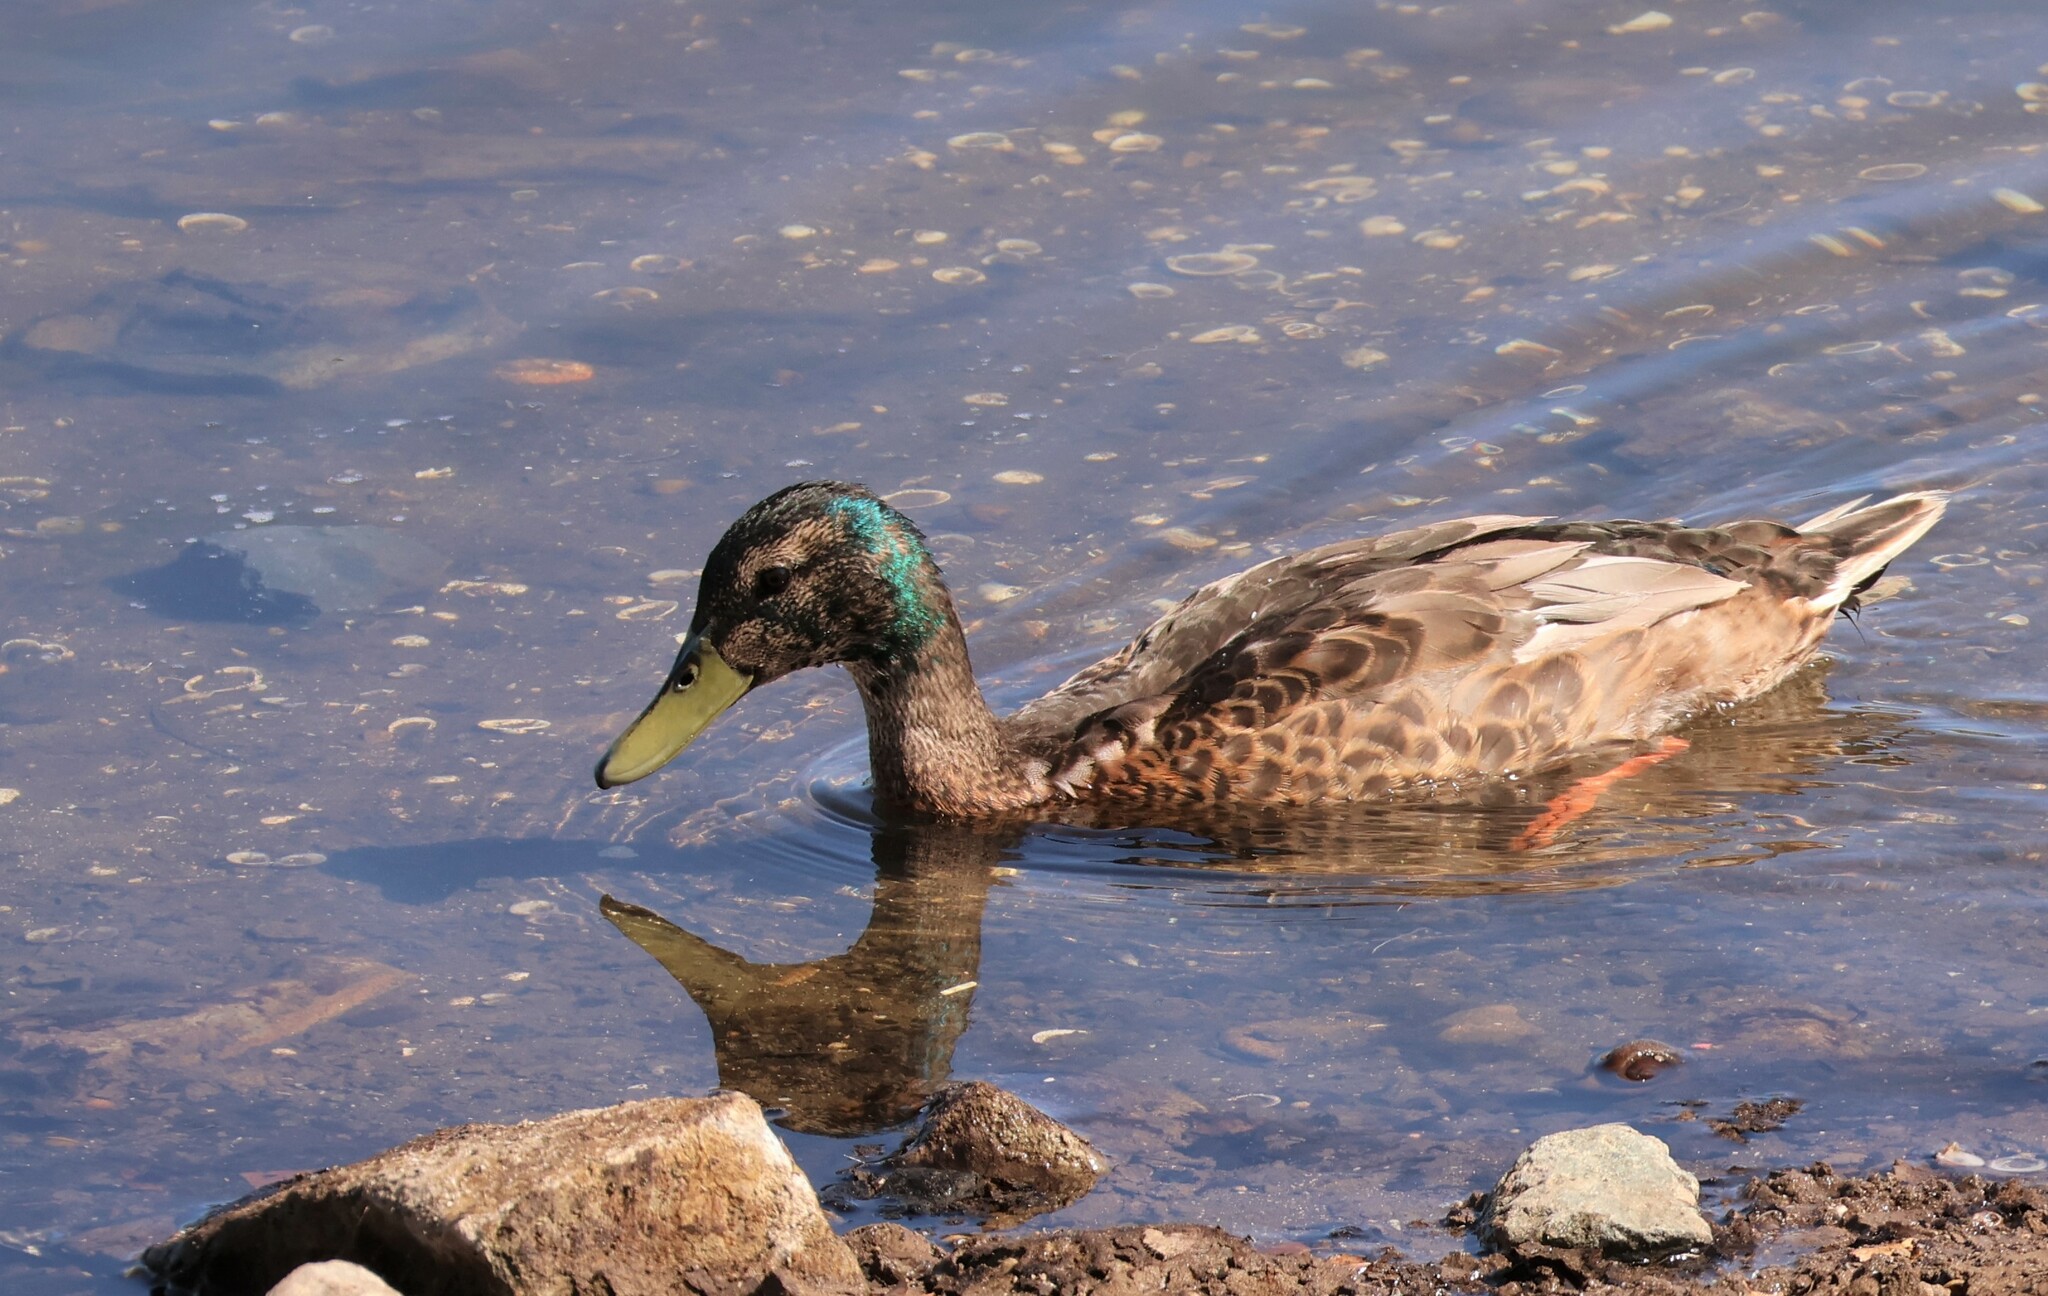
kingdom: Animalia
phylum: Chordata
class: Aves
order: Anseriformes
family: Anatidae
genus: Anas
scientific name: Anas platyrhynchos
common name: Mallard
